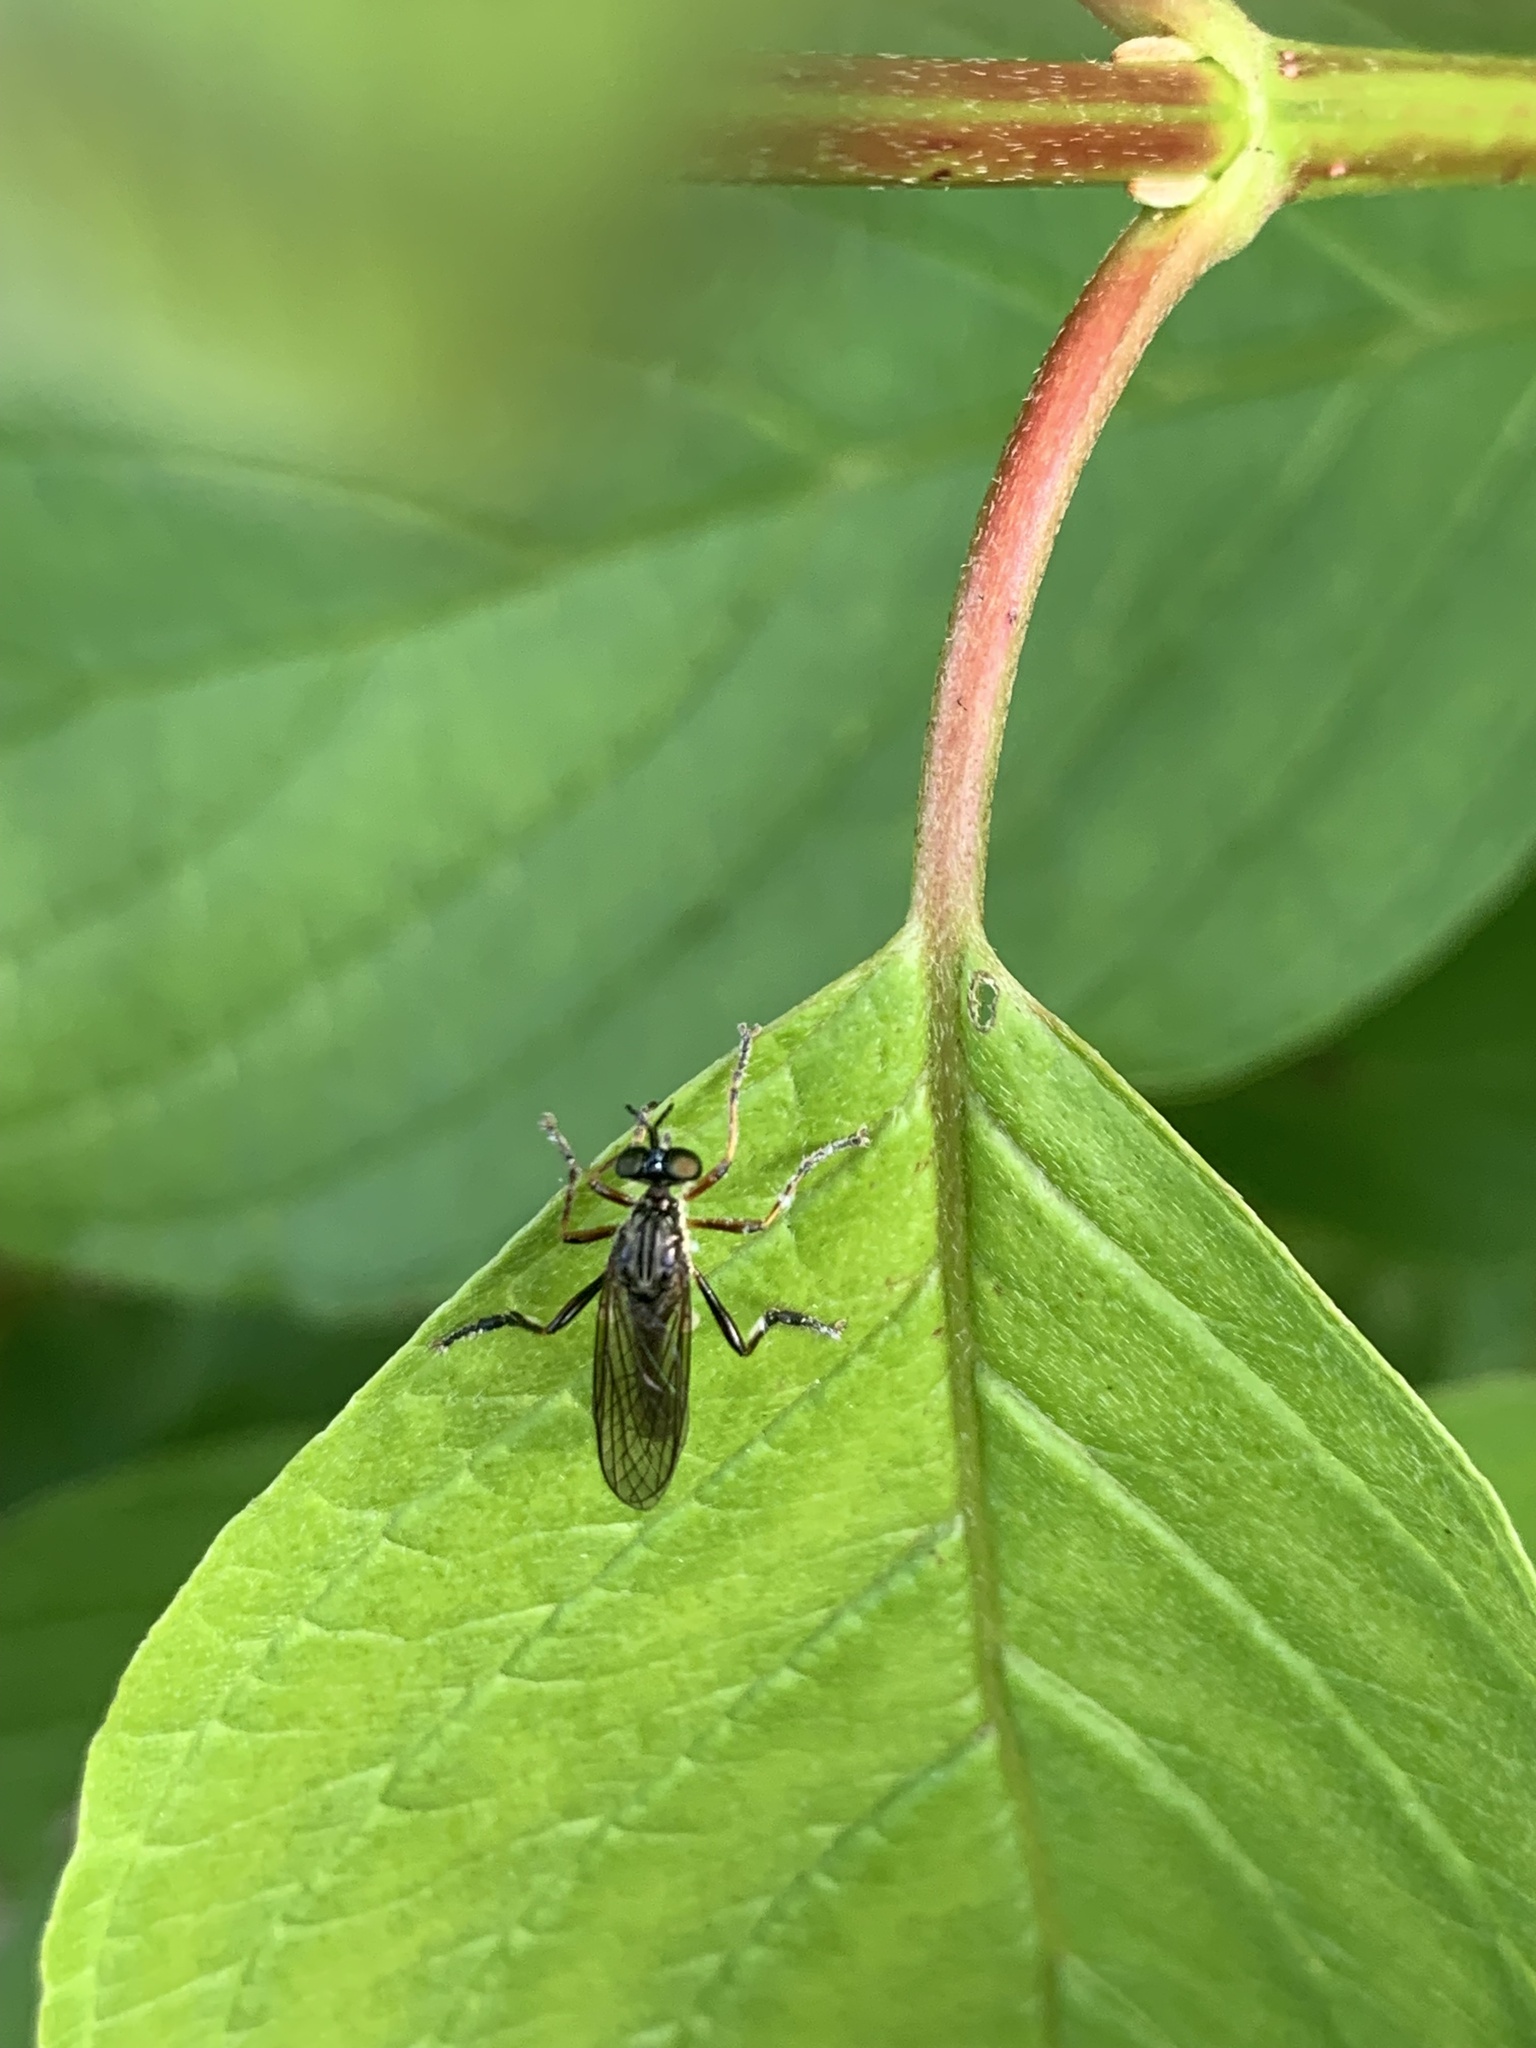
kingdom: Animalia
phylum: Arthropoda
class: Insecta
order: Diptera
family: Asilidae
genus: Dioctria
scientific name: Dioctria hyalipennis
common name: Stripe-legged robberfly
